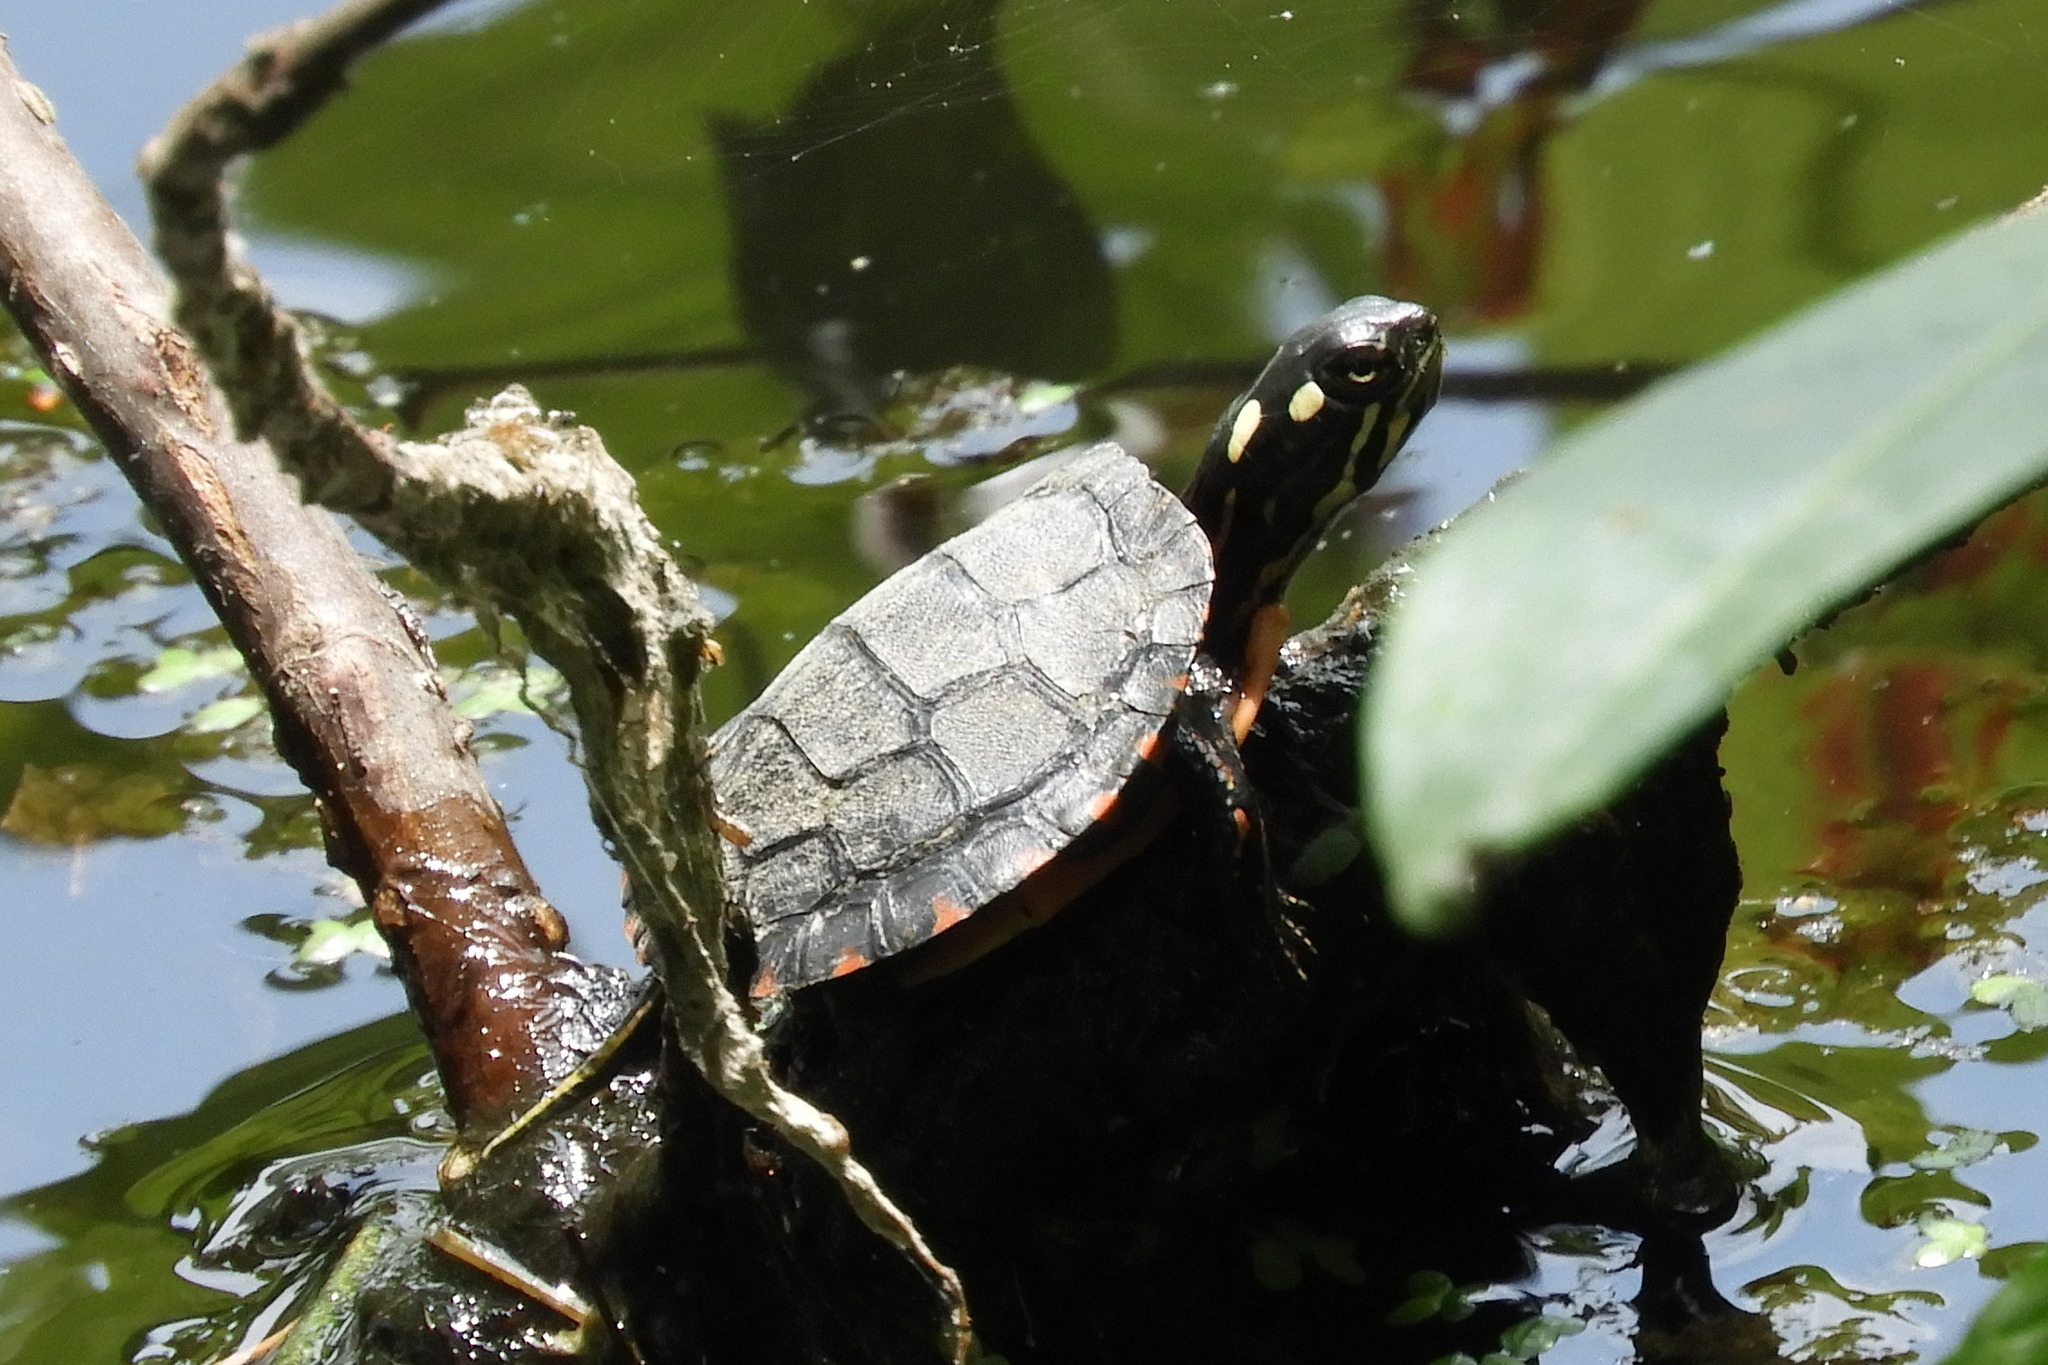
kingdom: Animalia
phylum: Chordata
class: Testudines
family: Emydidae
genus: Chrysemys
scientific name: Chrysemys picta
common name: Painted turtle
